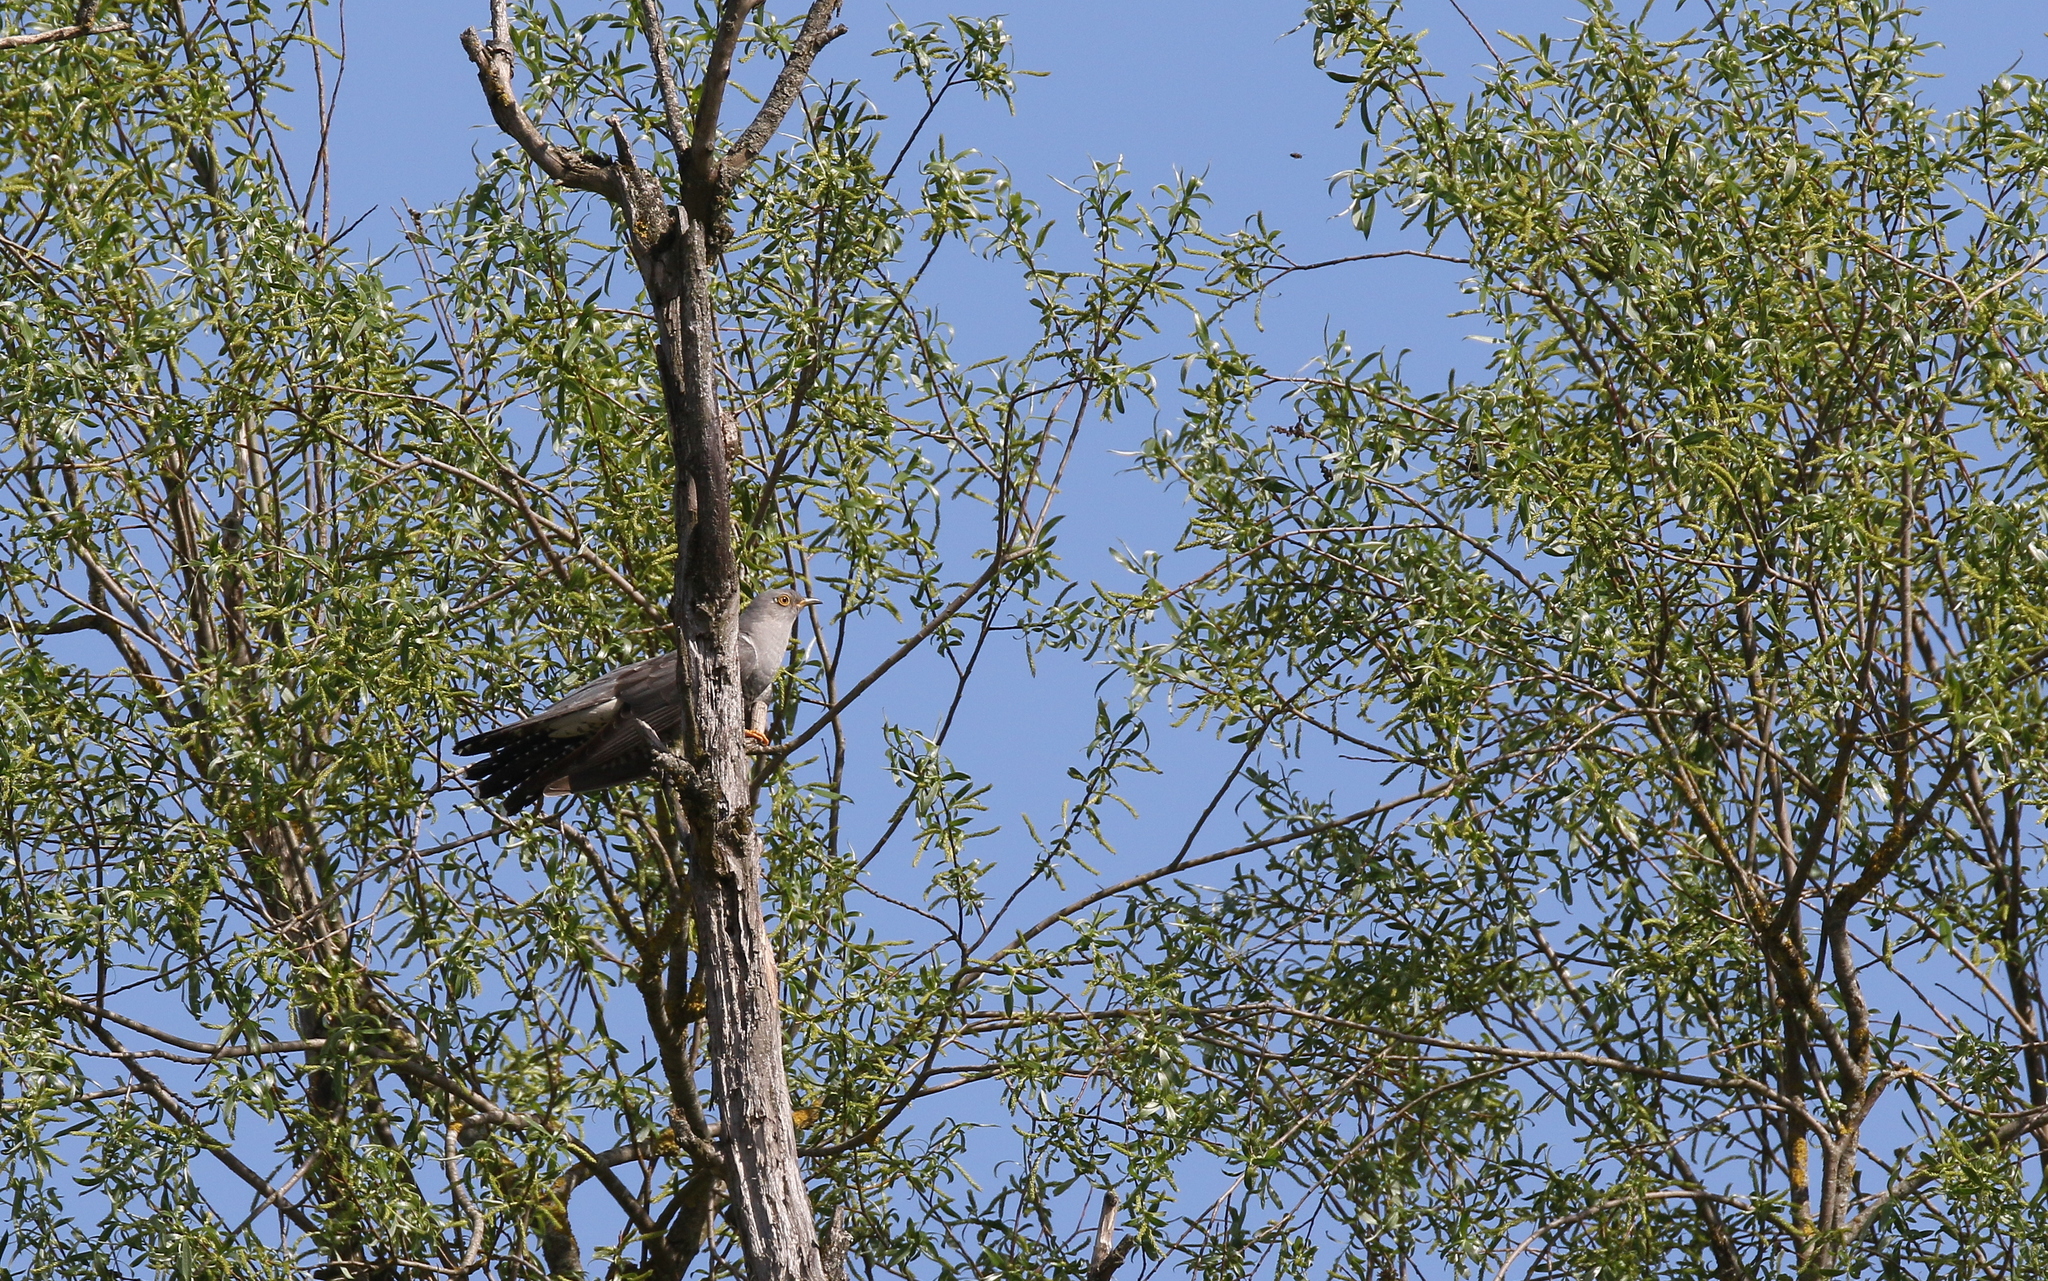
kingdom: Animalia
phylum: Chordata
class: Aves
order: Cuculiformes
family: Cuculidae
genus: Cuculus
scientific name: Cuculus canorus
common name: Common cuckoo
